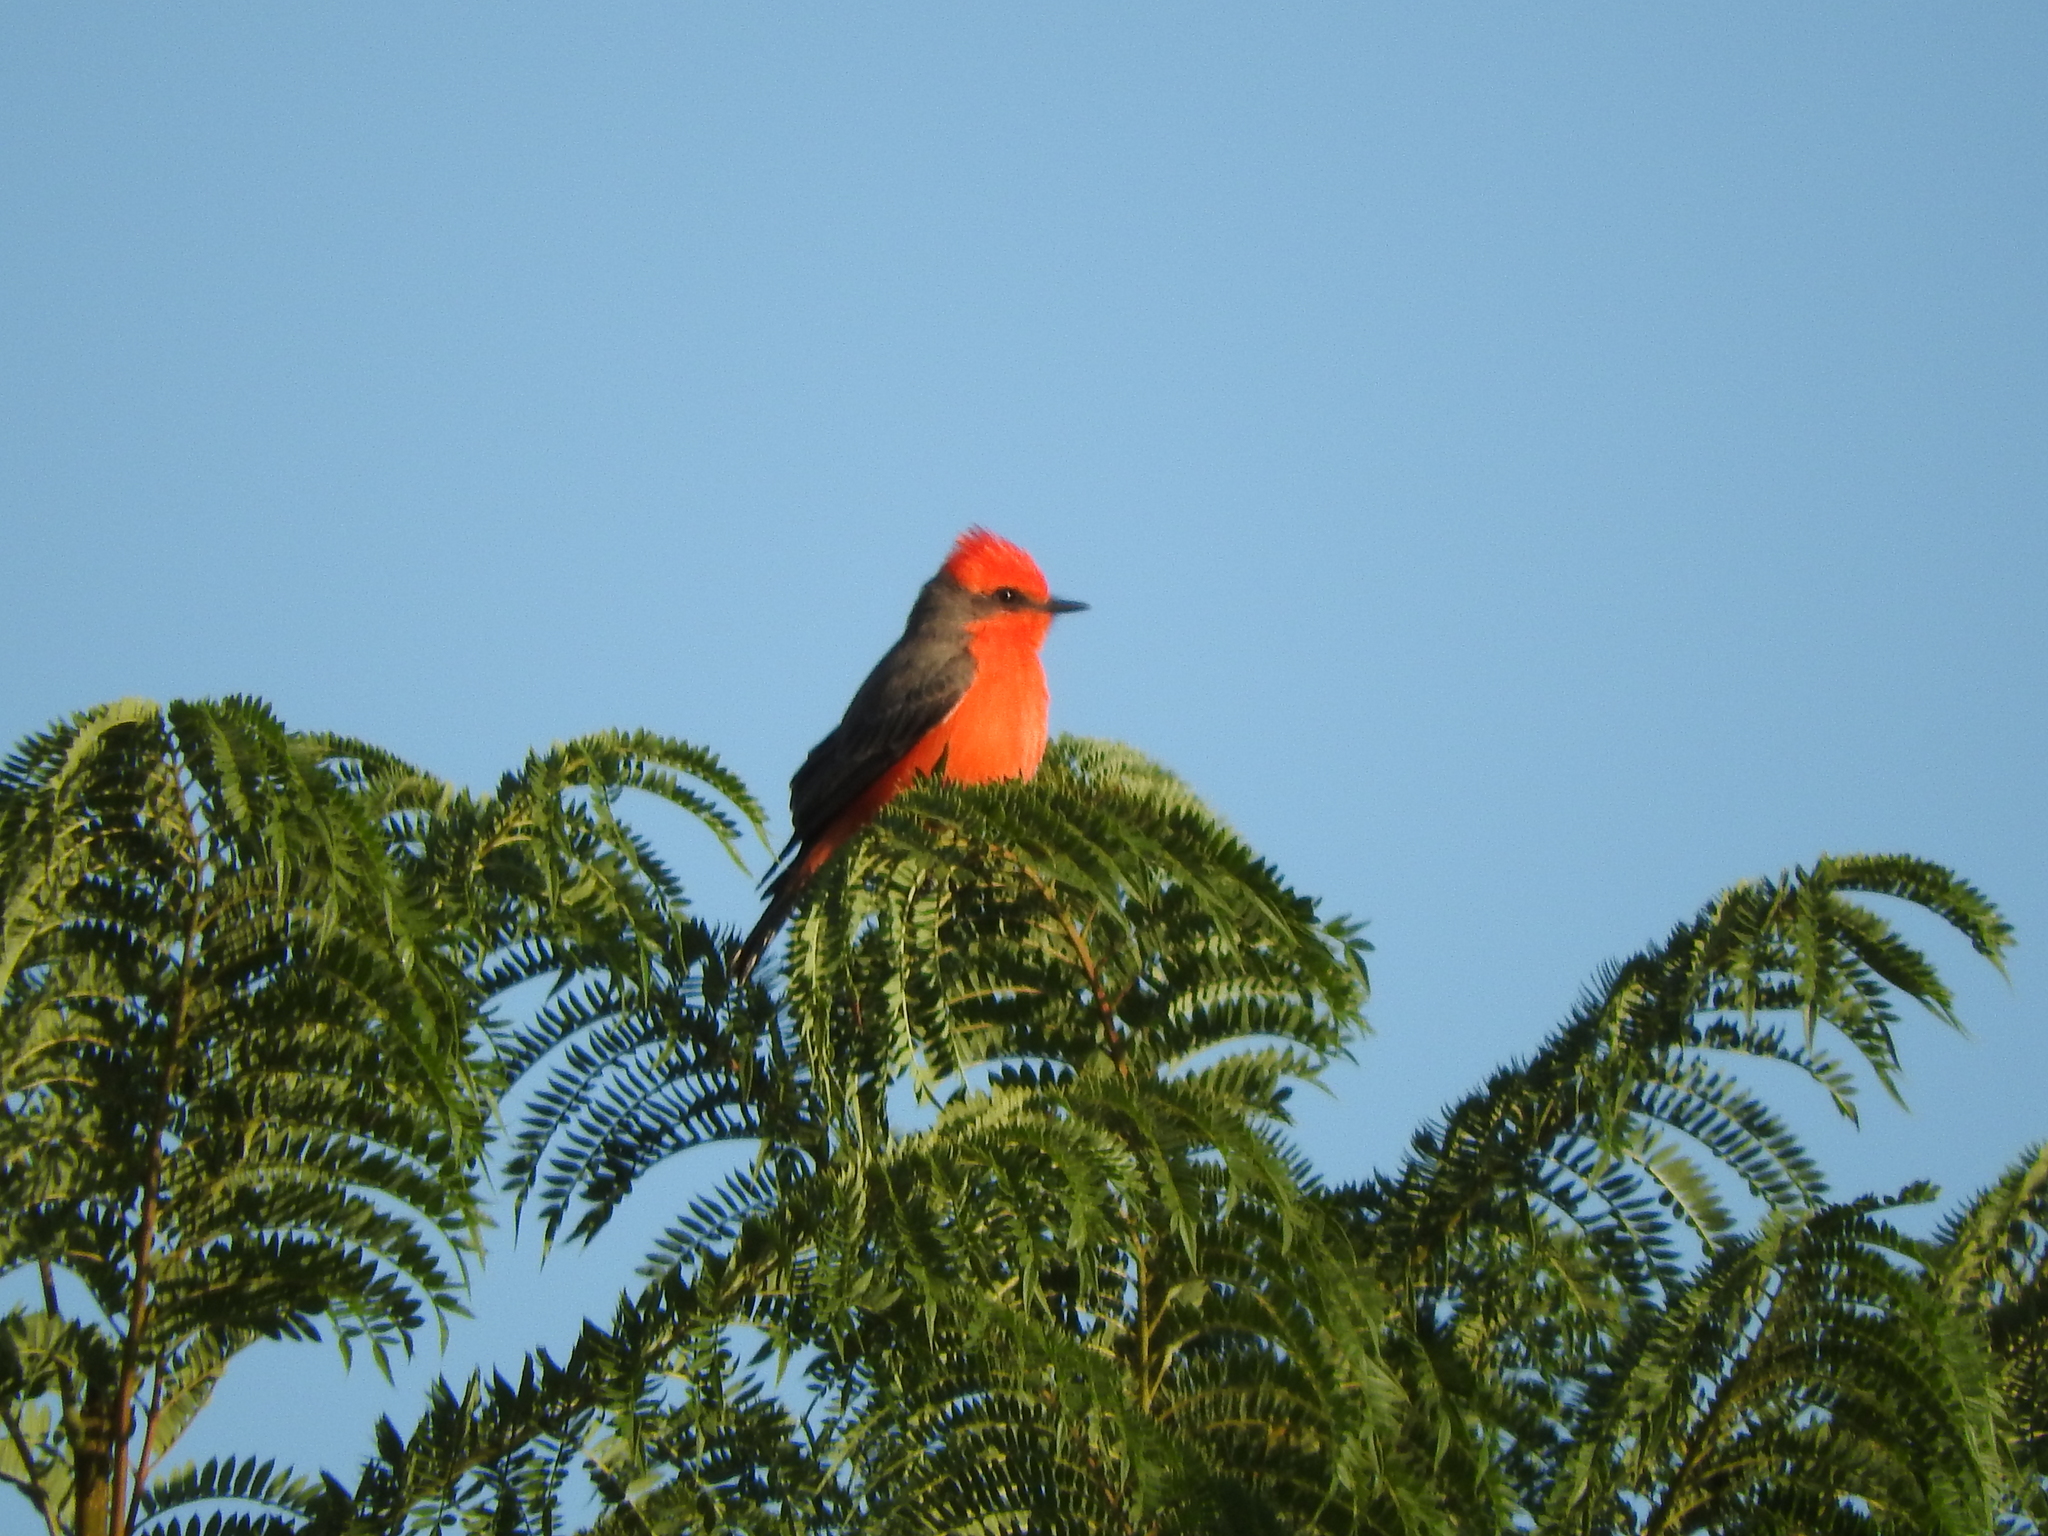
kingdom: Animalia
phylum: Chordata
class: Aves
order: Passeriformes
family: Tyrannidae
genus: Pyrocephalus
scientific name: Pyrocephalus rubinus
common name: Vermilion flycatcher
